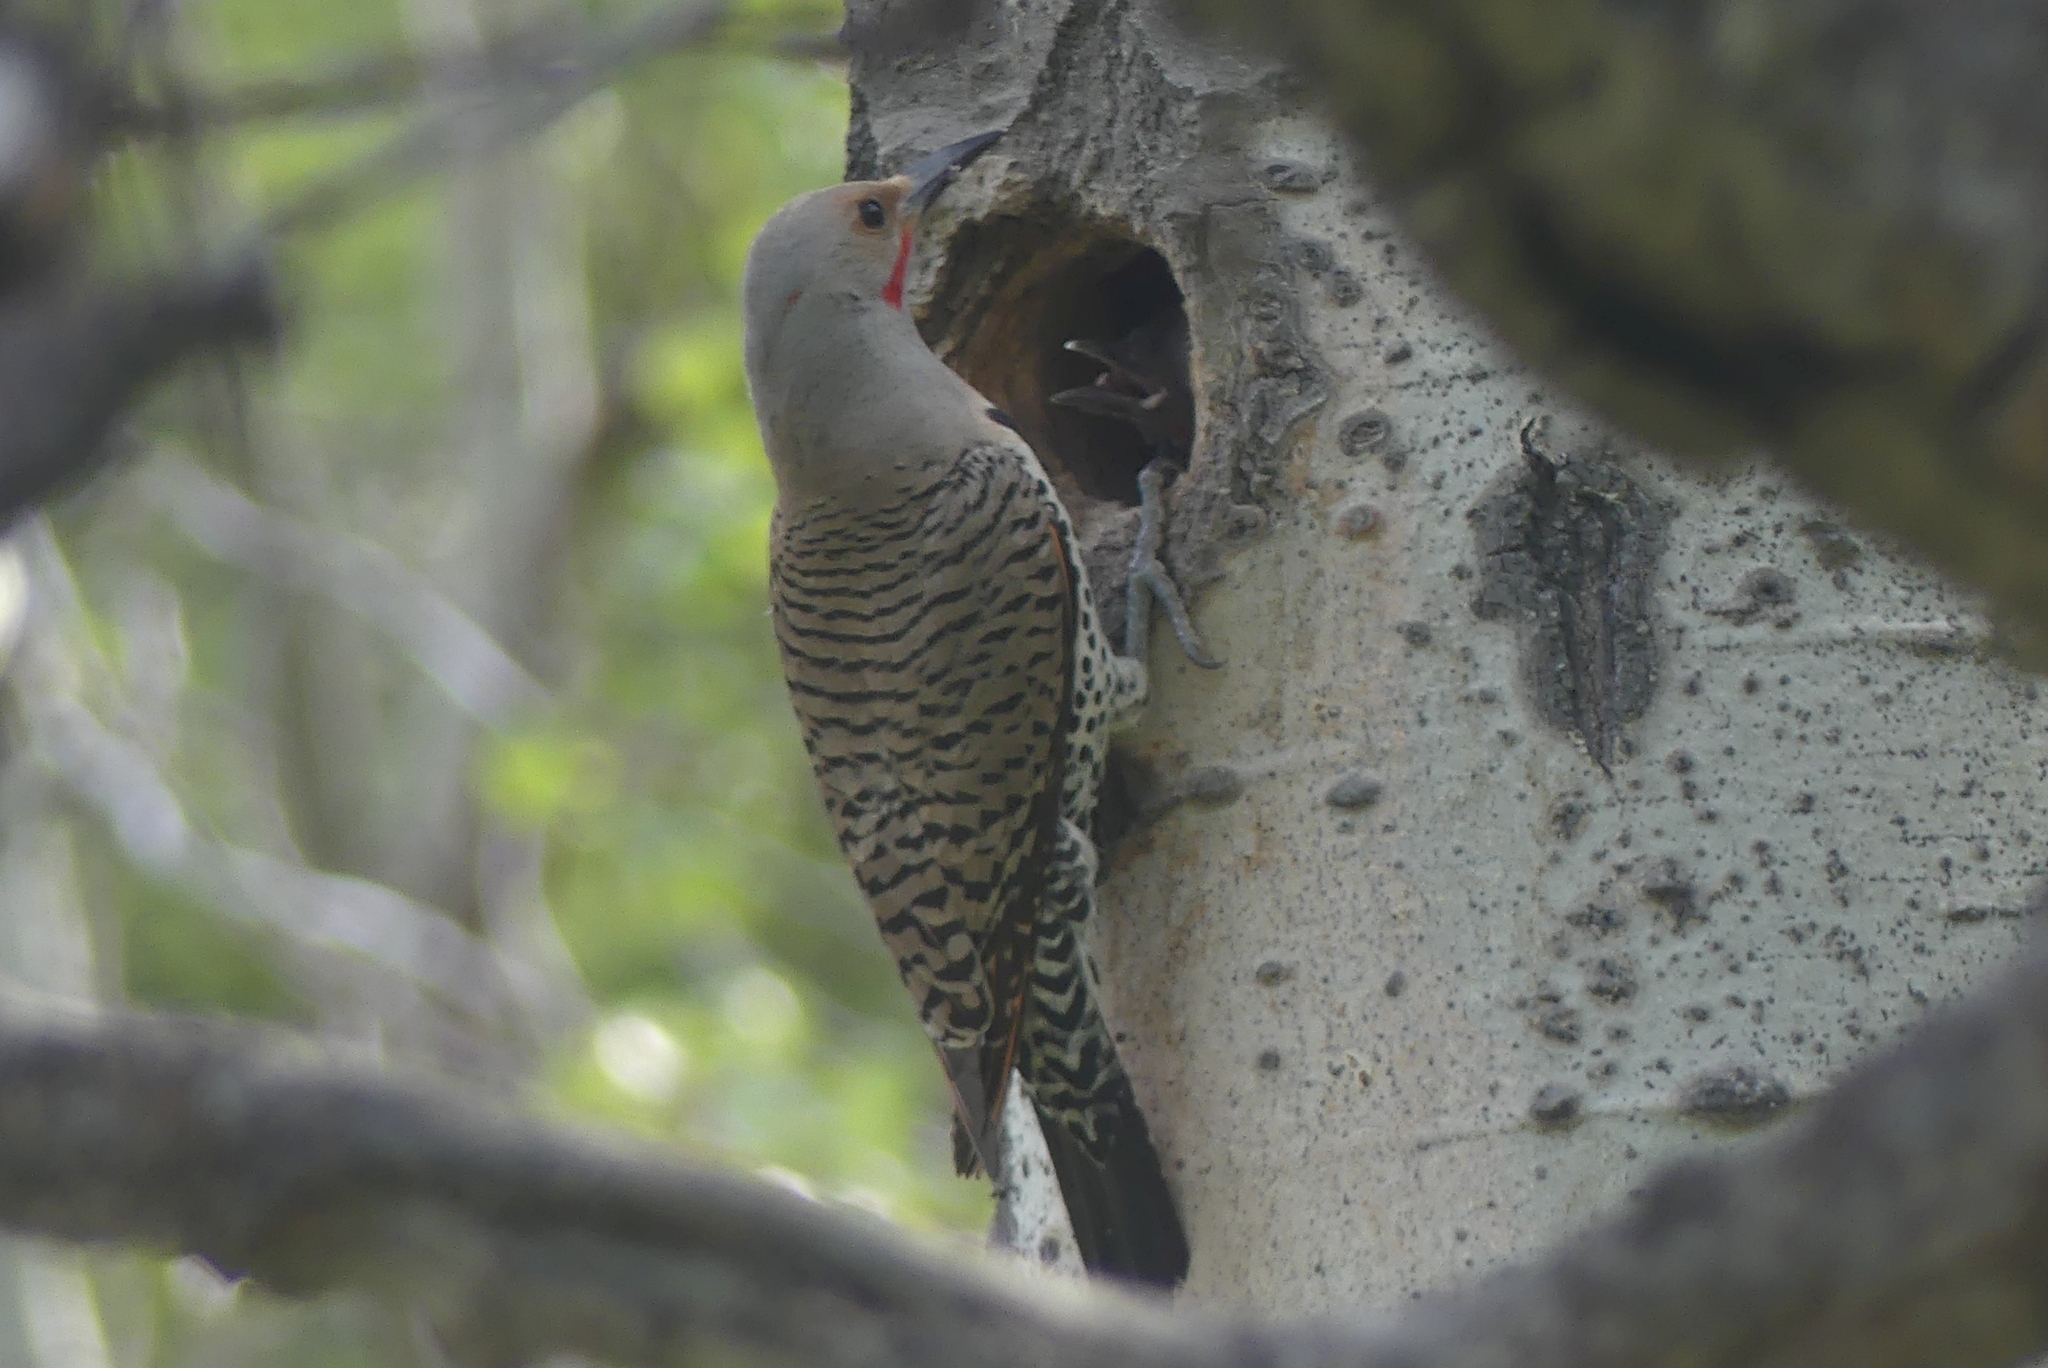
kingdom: Animalia
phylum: Chordata
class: Aves
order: Piciformes
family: Picidae
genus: Colaptes
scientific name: Colaptes auratus
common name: Northern flicker
